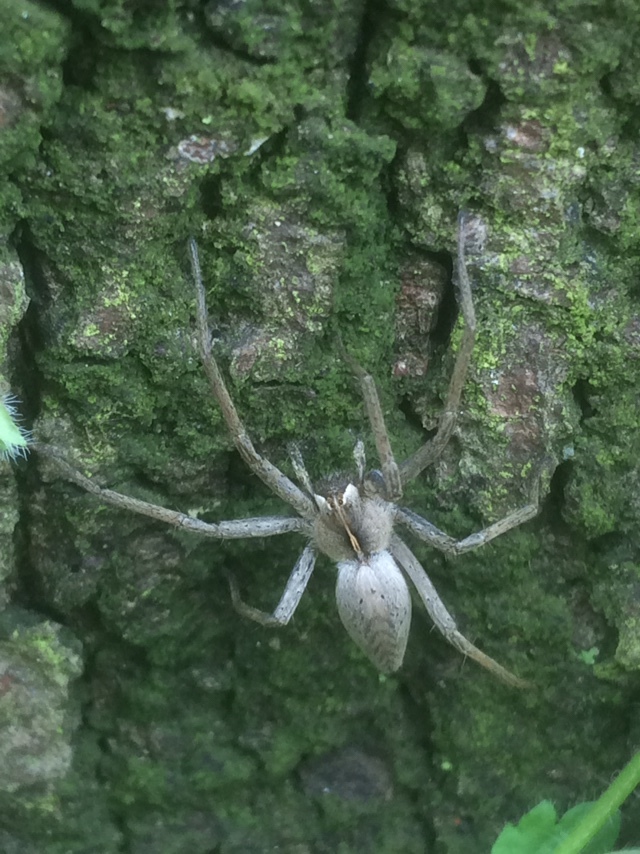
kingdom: Animalia
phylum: Arthropoda
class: Arachnida
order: Araneae
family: Pisauridae
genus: Pisaura
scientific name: Pisaura mirabilis
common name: Tent spider
